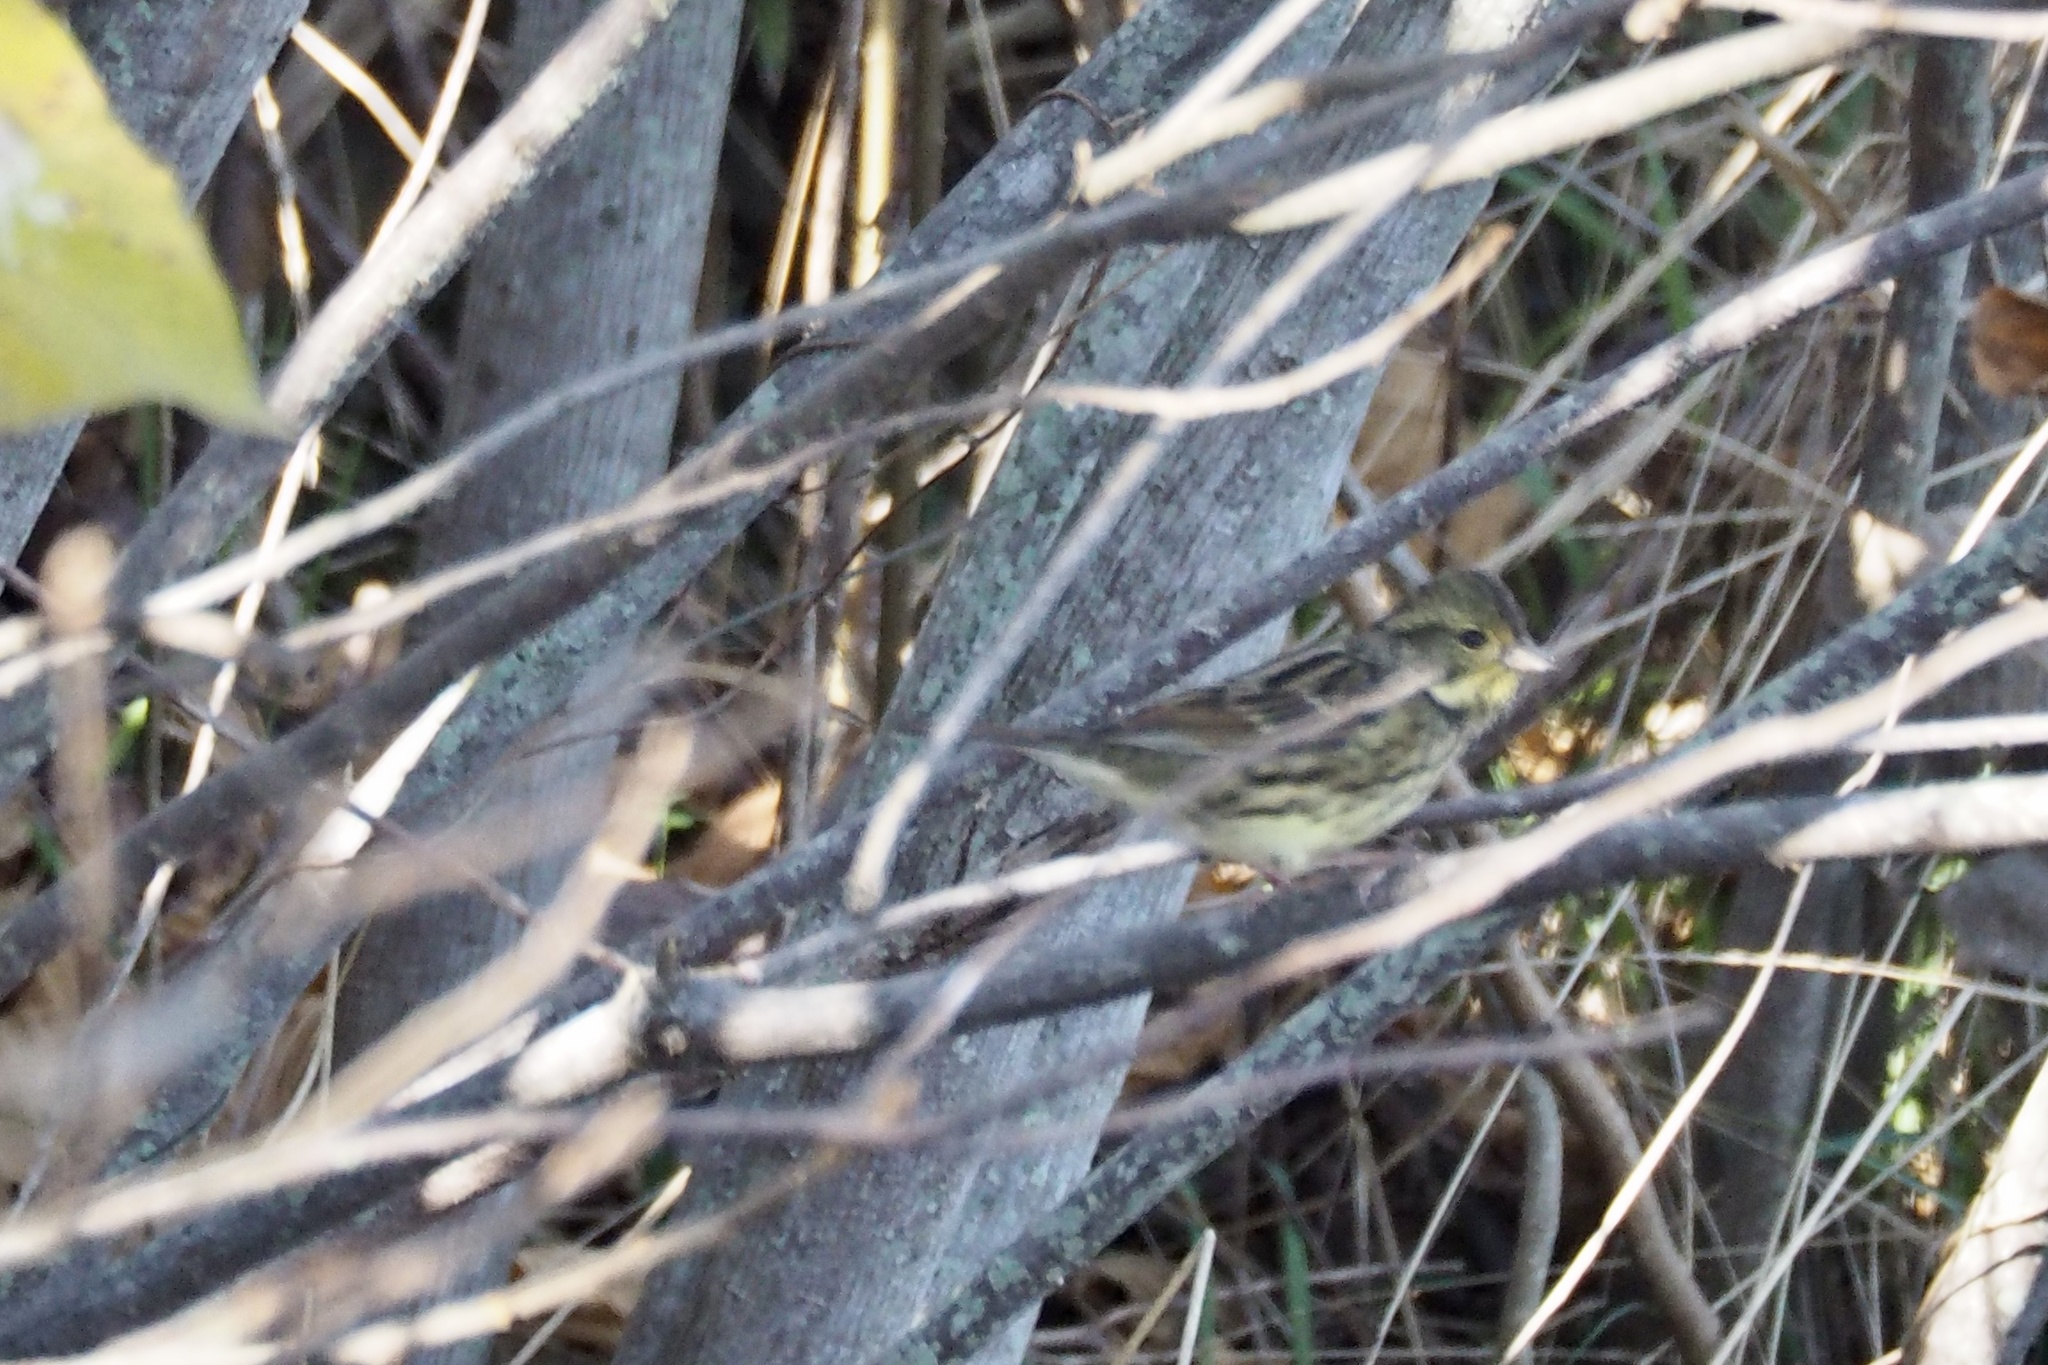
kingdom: Animalia
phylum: Chordata
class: Aves
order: Passeriformes
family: Emberizidae
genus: Emberiza
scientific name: Emberiza personata
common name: Masked bunting
